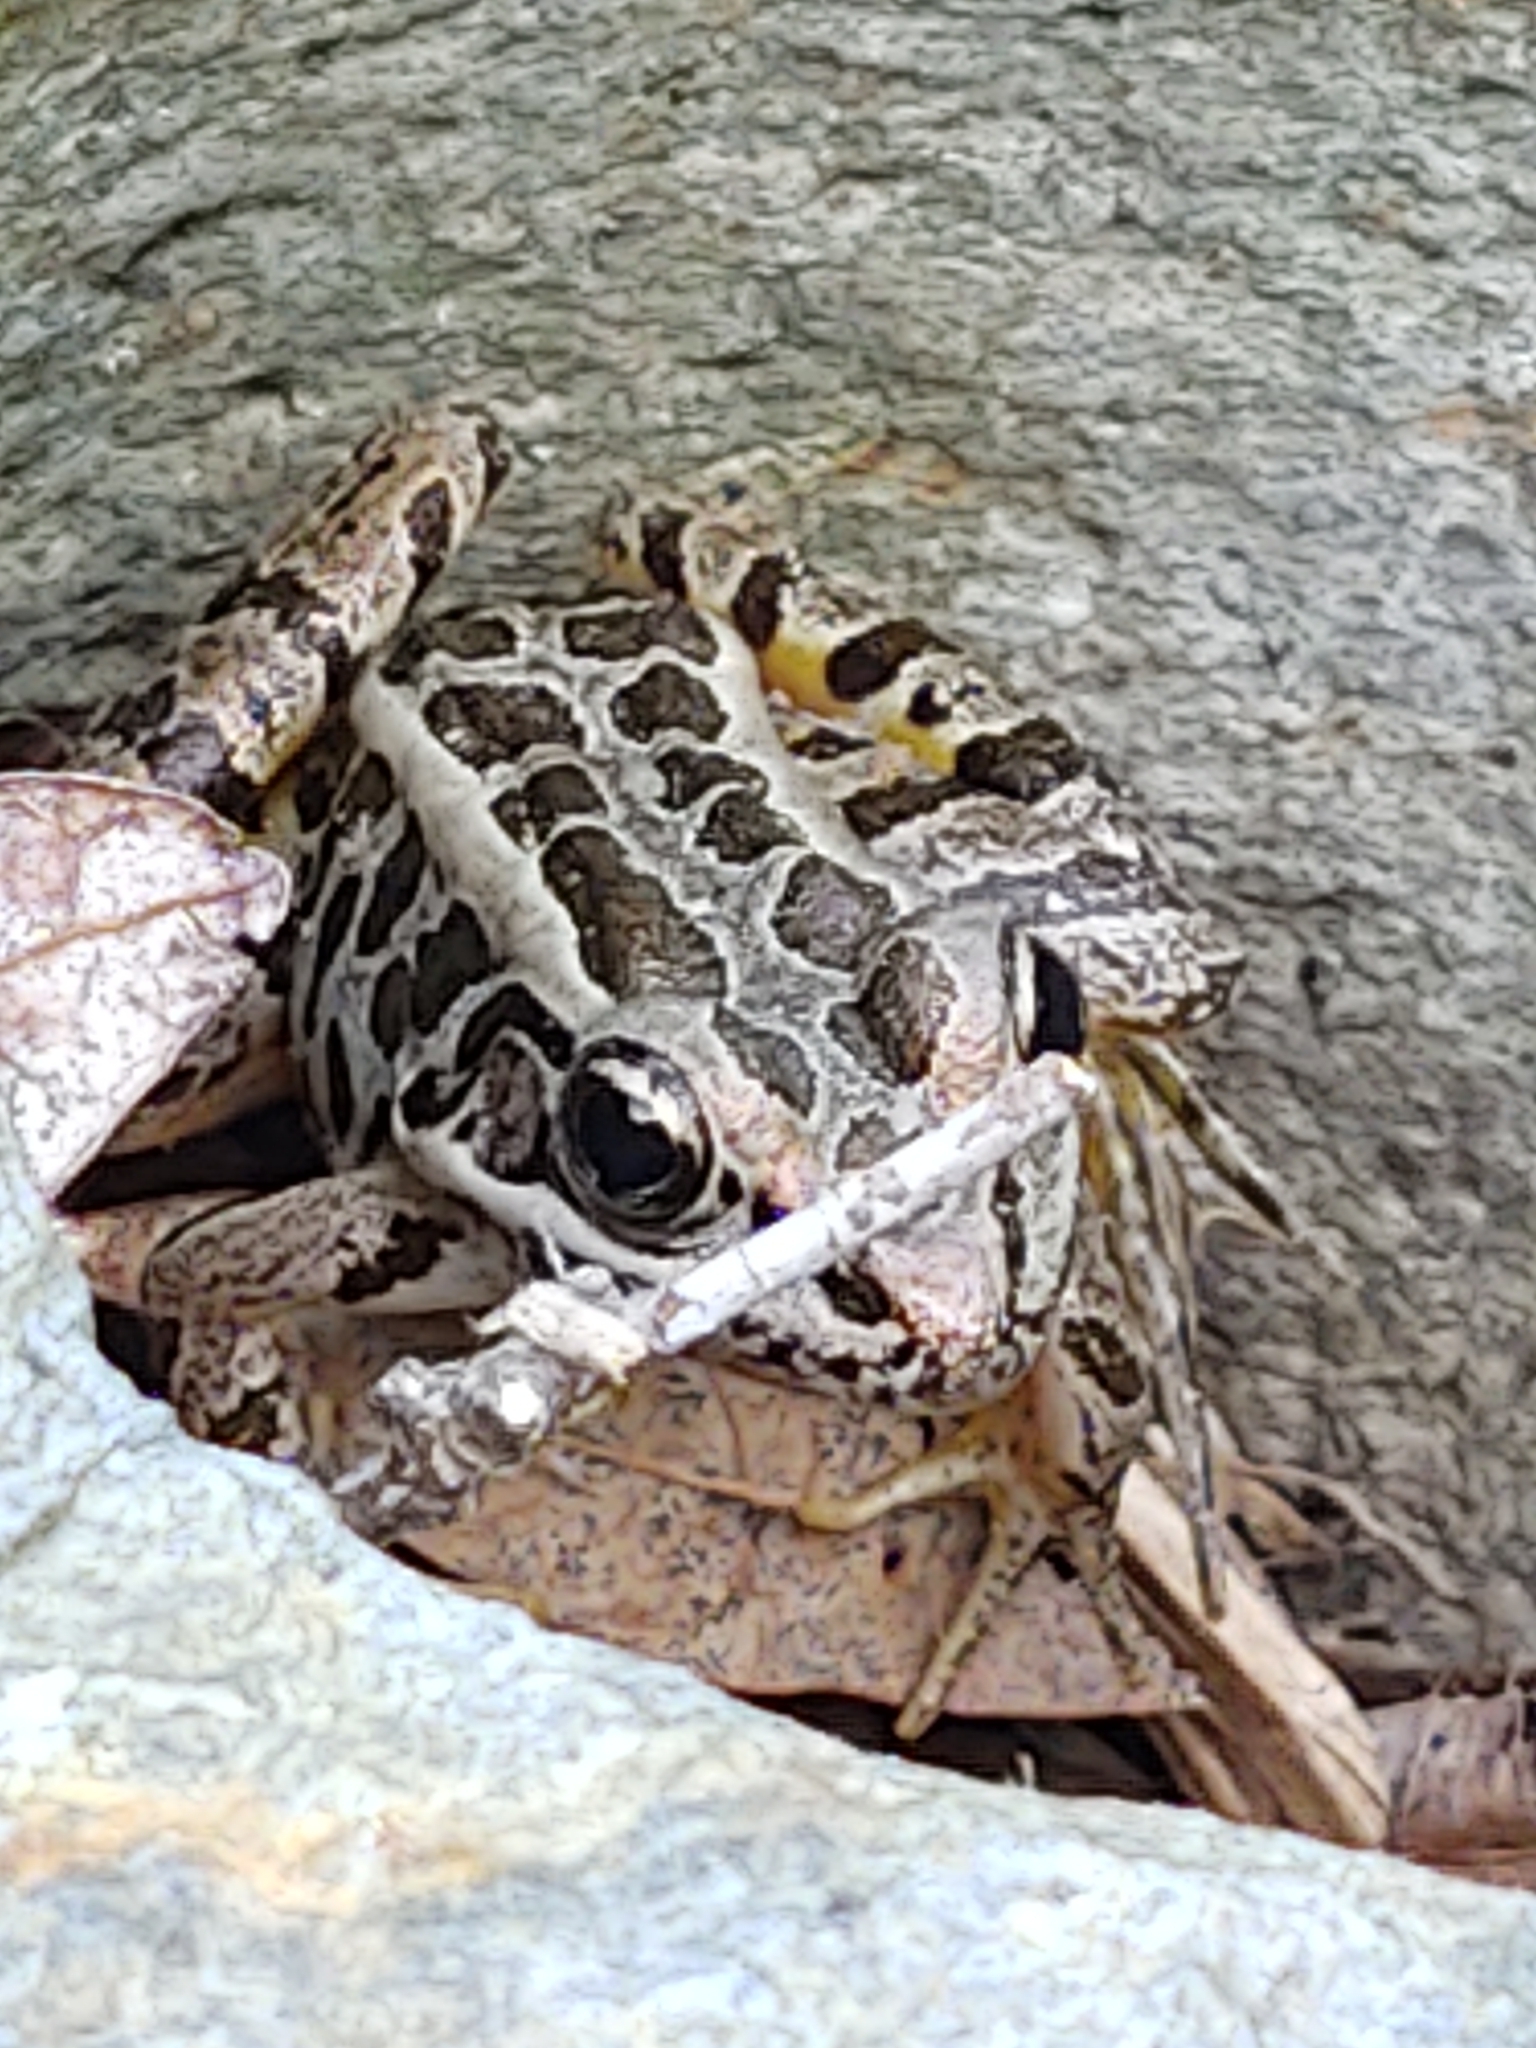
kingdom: Animalia
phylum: Chordata
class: Amphibia
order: Anura
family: Ranidae
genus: Lithobates
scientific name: Lithobates palustris
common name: Pickerel frog
